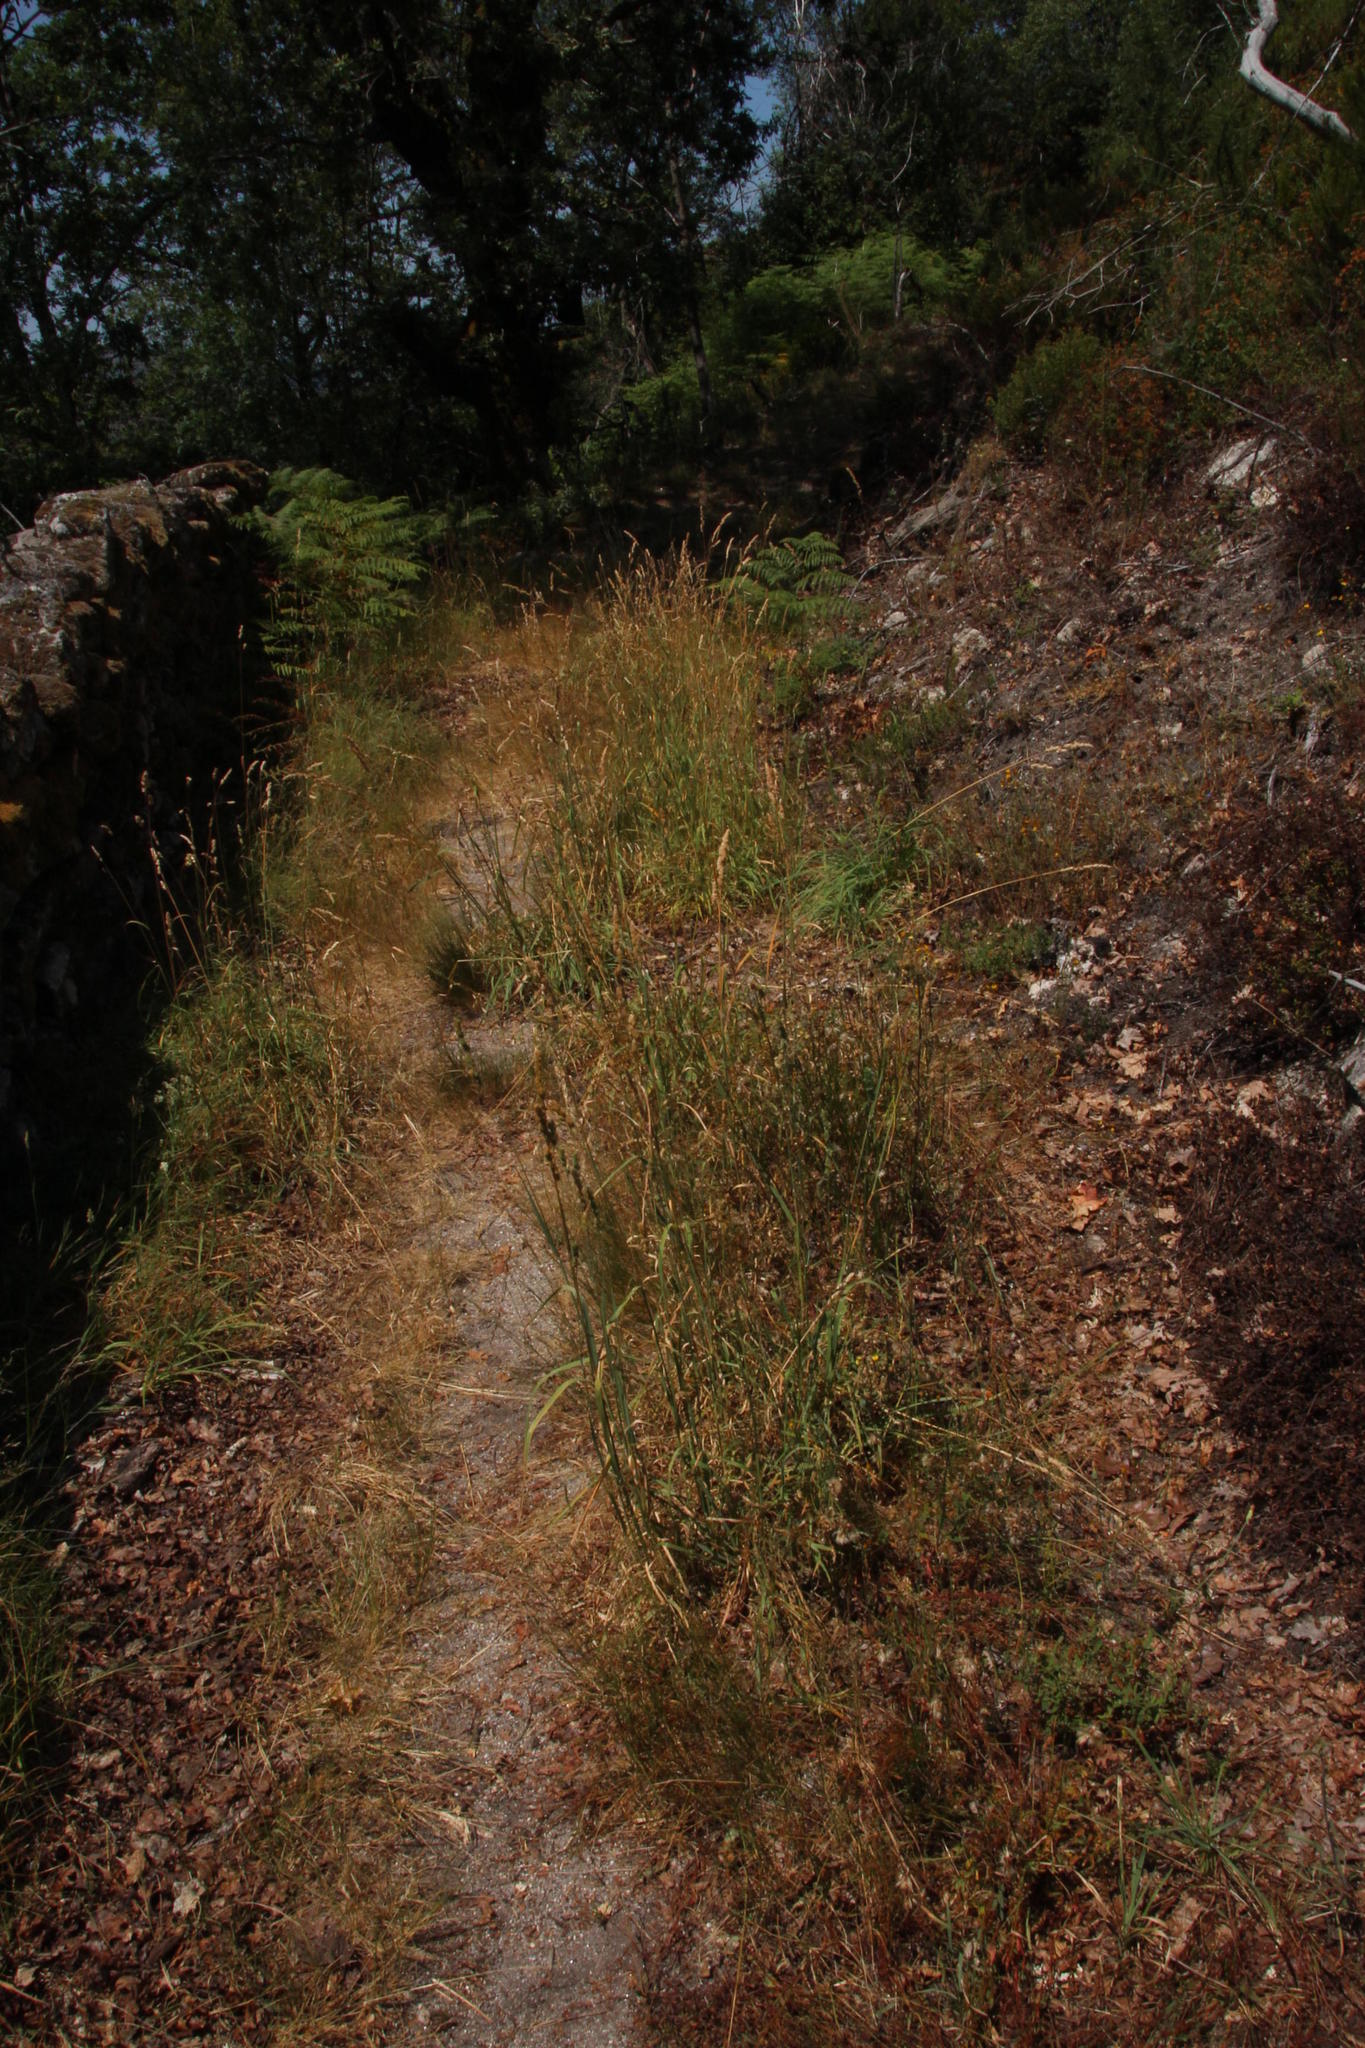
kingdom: Plantae
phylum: Tracheophyta
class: Liliopsida
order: Poales
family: Poaceae
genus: Dactylis
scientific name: Dactylis glomerata
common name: Orchardgrass
